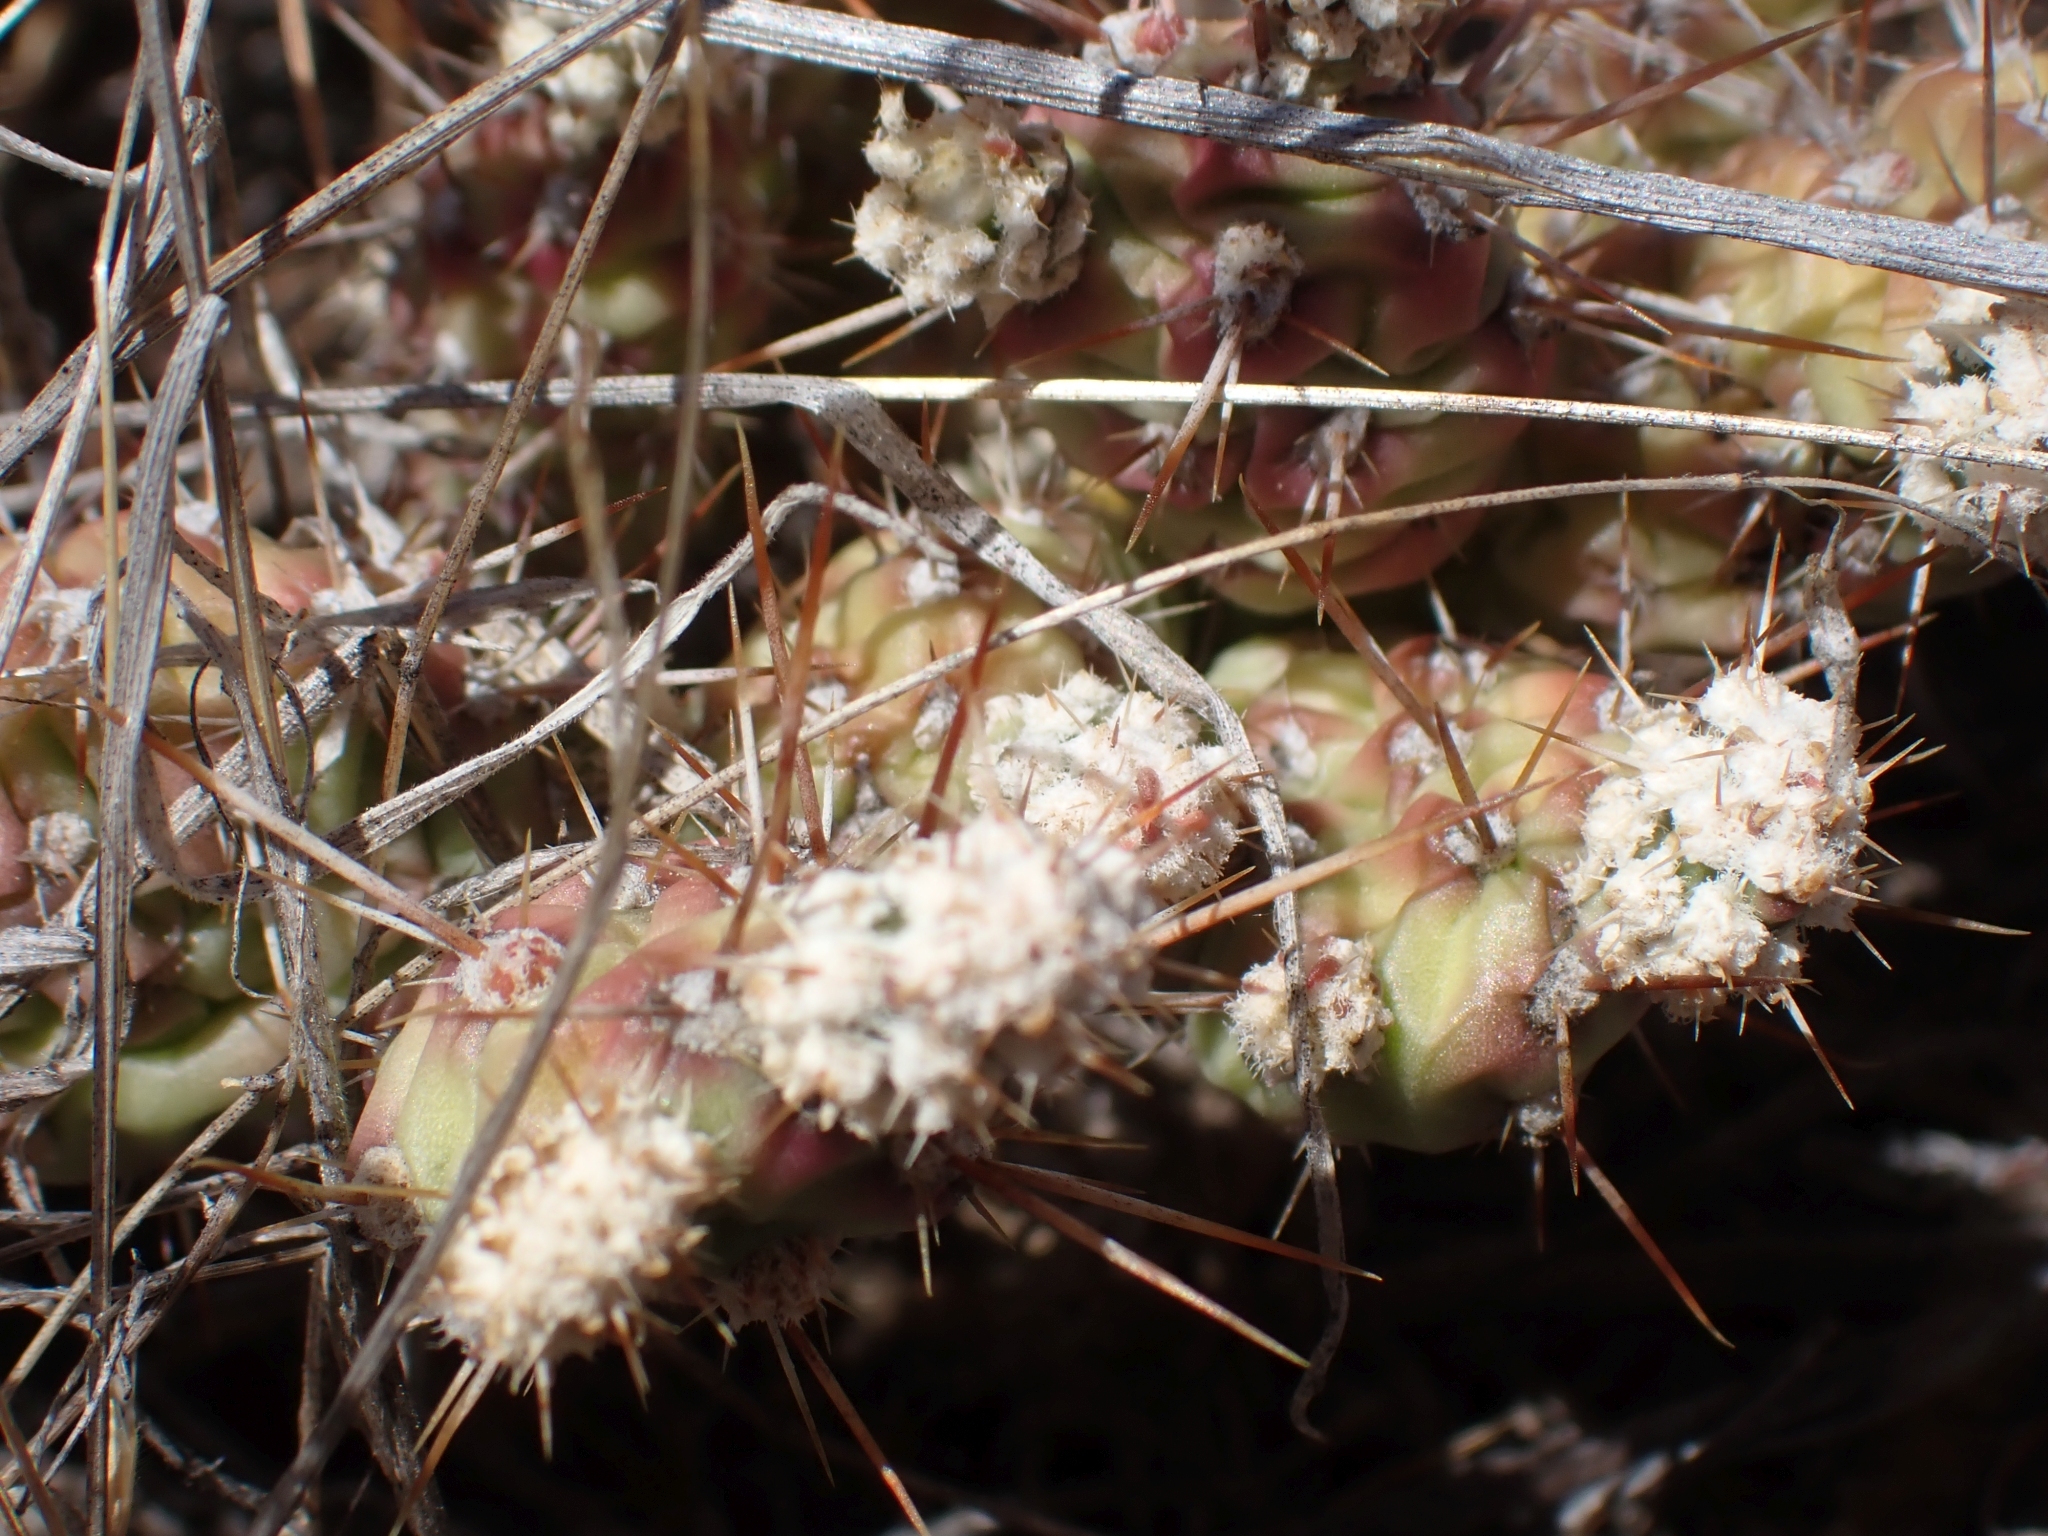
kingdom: Plantae
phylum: Tracheophyta
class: Magnoliopsida
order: Caryophyllales
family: Cactaceae
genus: Opuntia
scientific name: Opuntia fragilis
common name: Brittle cactus
